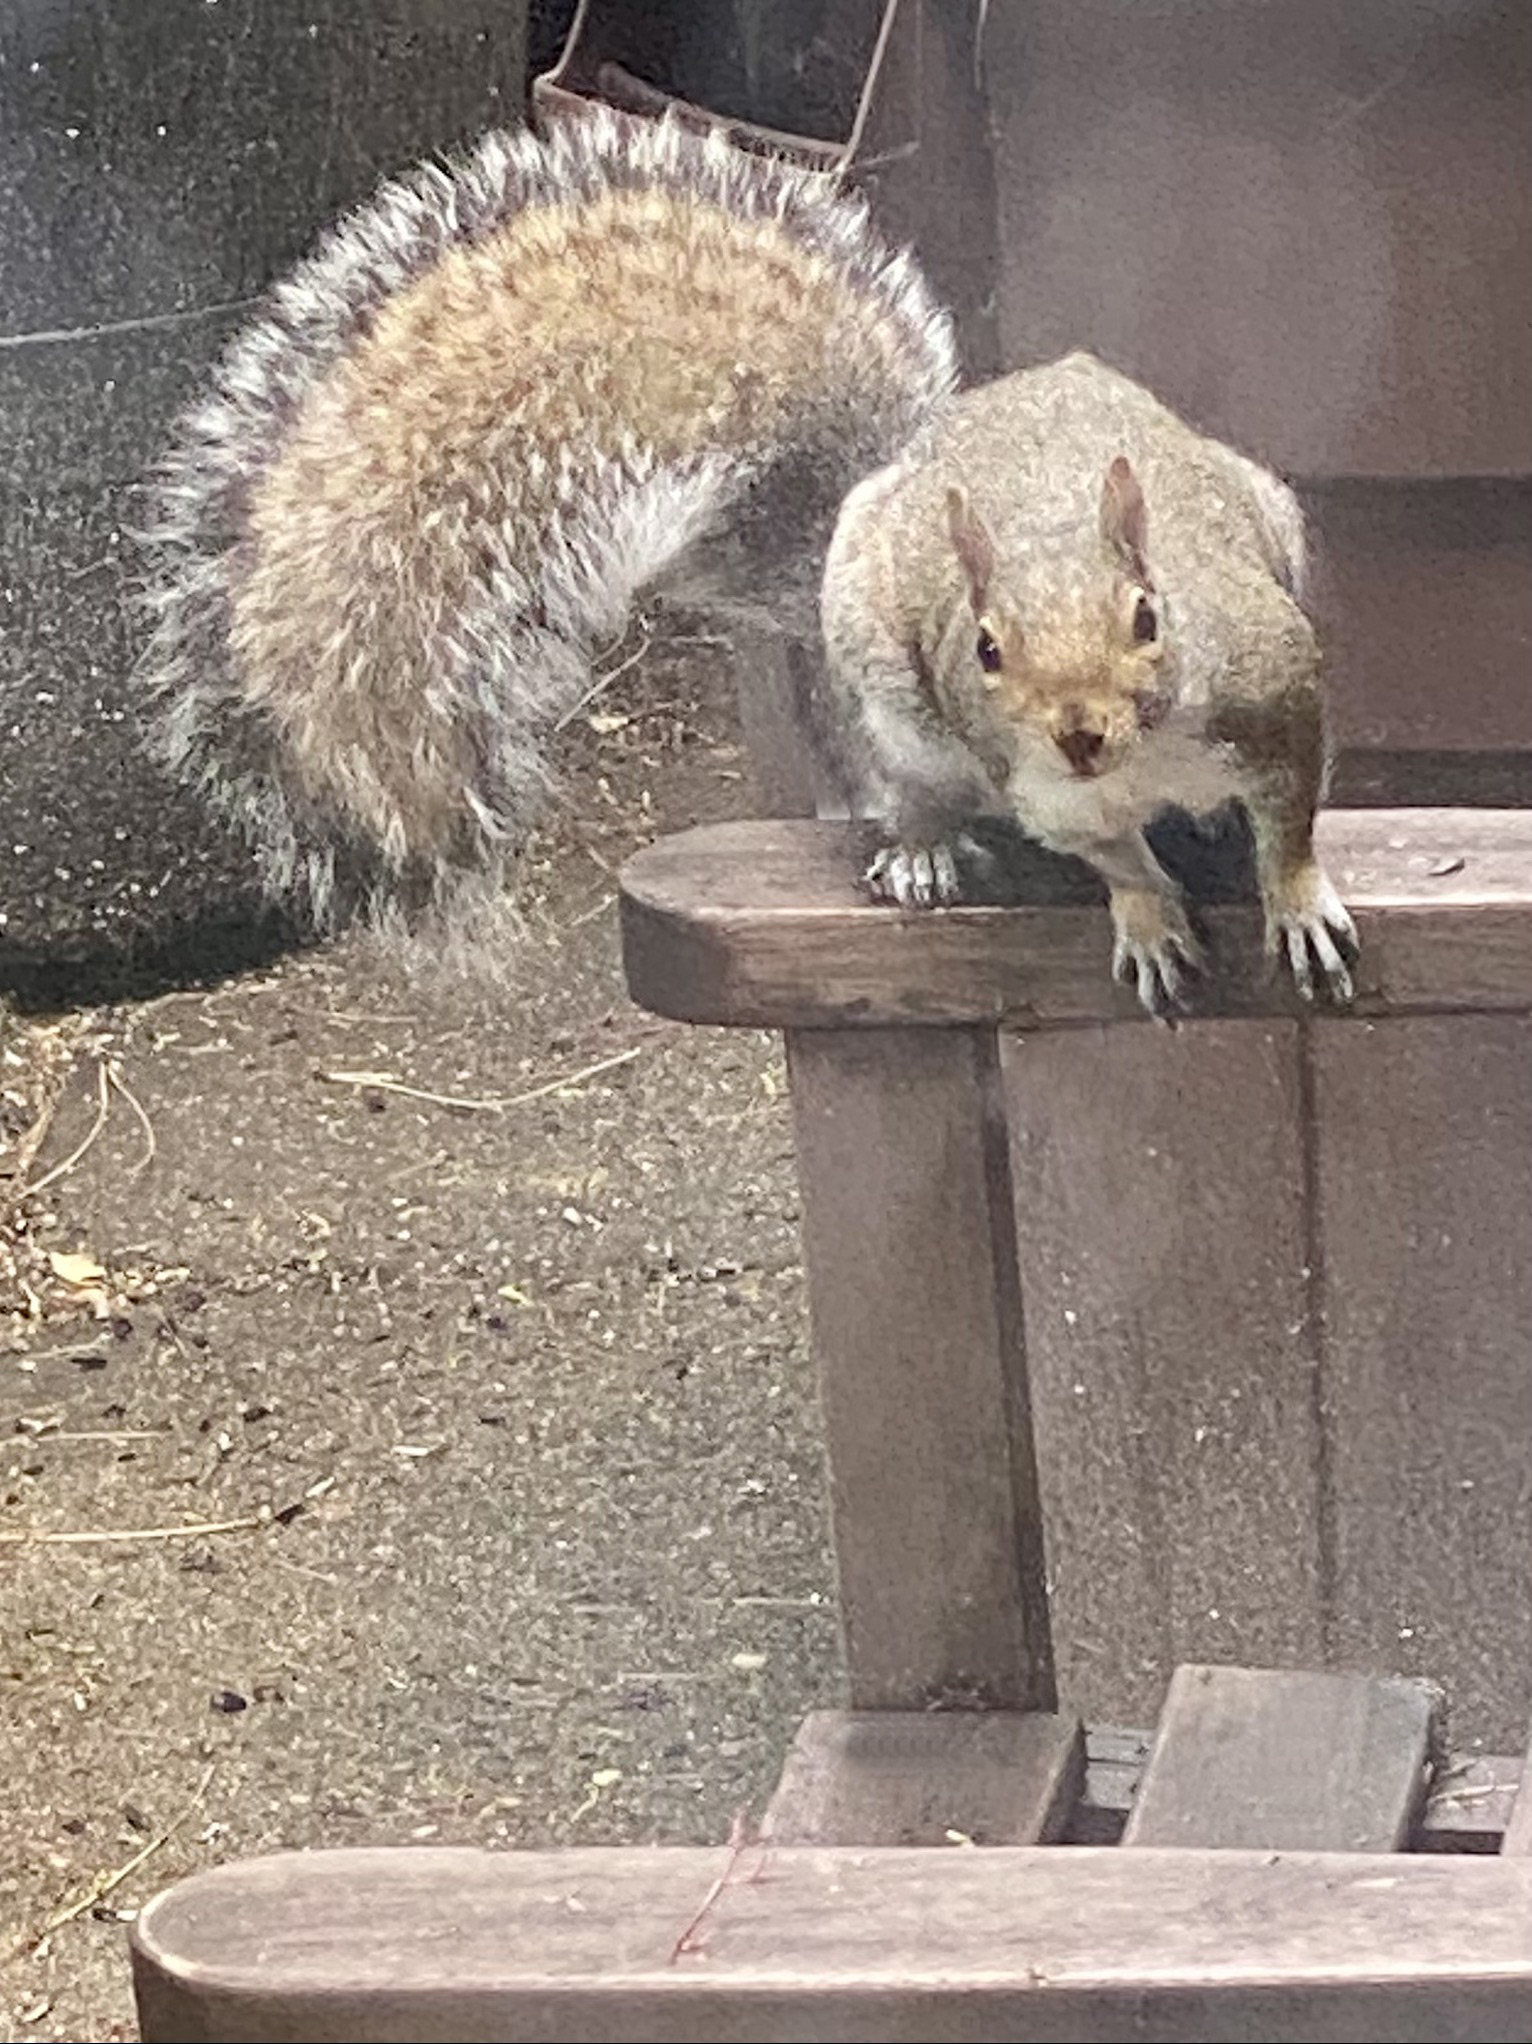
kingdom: Animalia
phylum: Chordata
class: Mammalia
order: Rodentia
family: Sciuridae
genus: Sciurus
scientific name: Sciurus carolinensis
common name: Eastern gray squirrel
